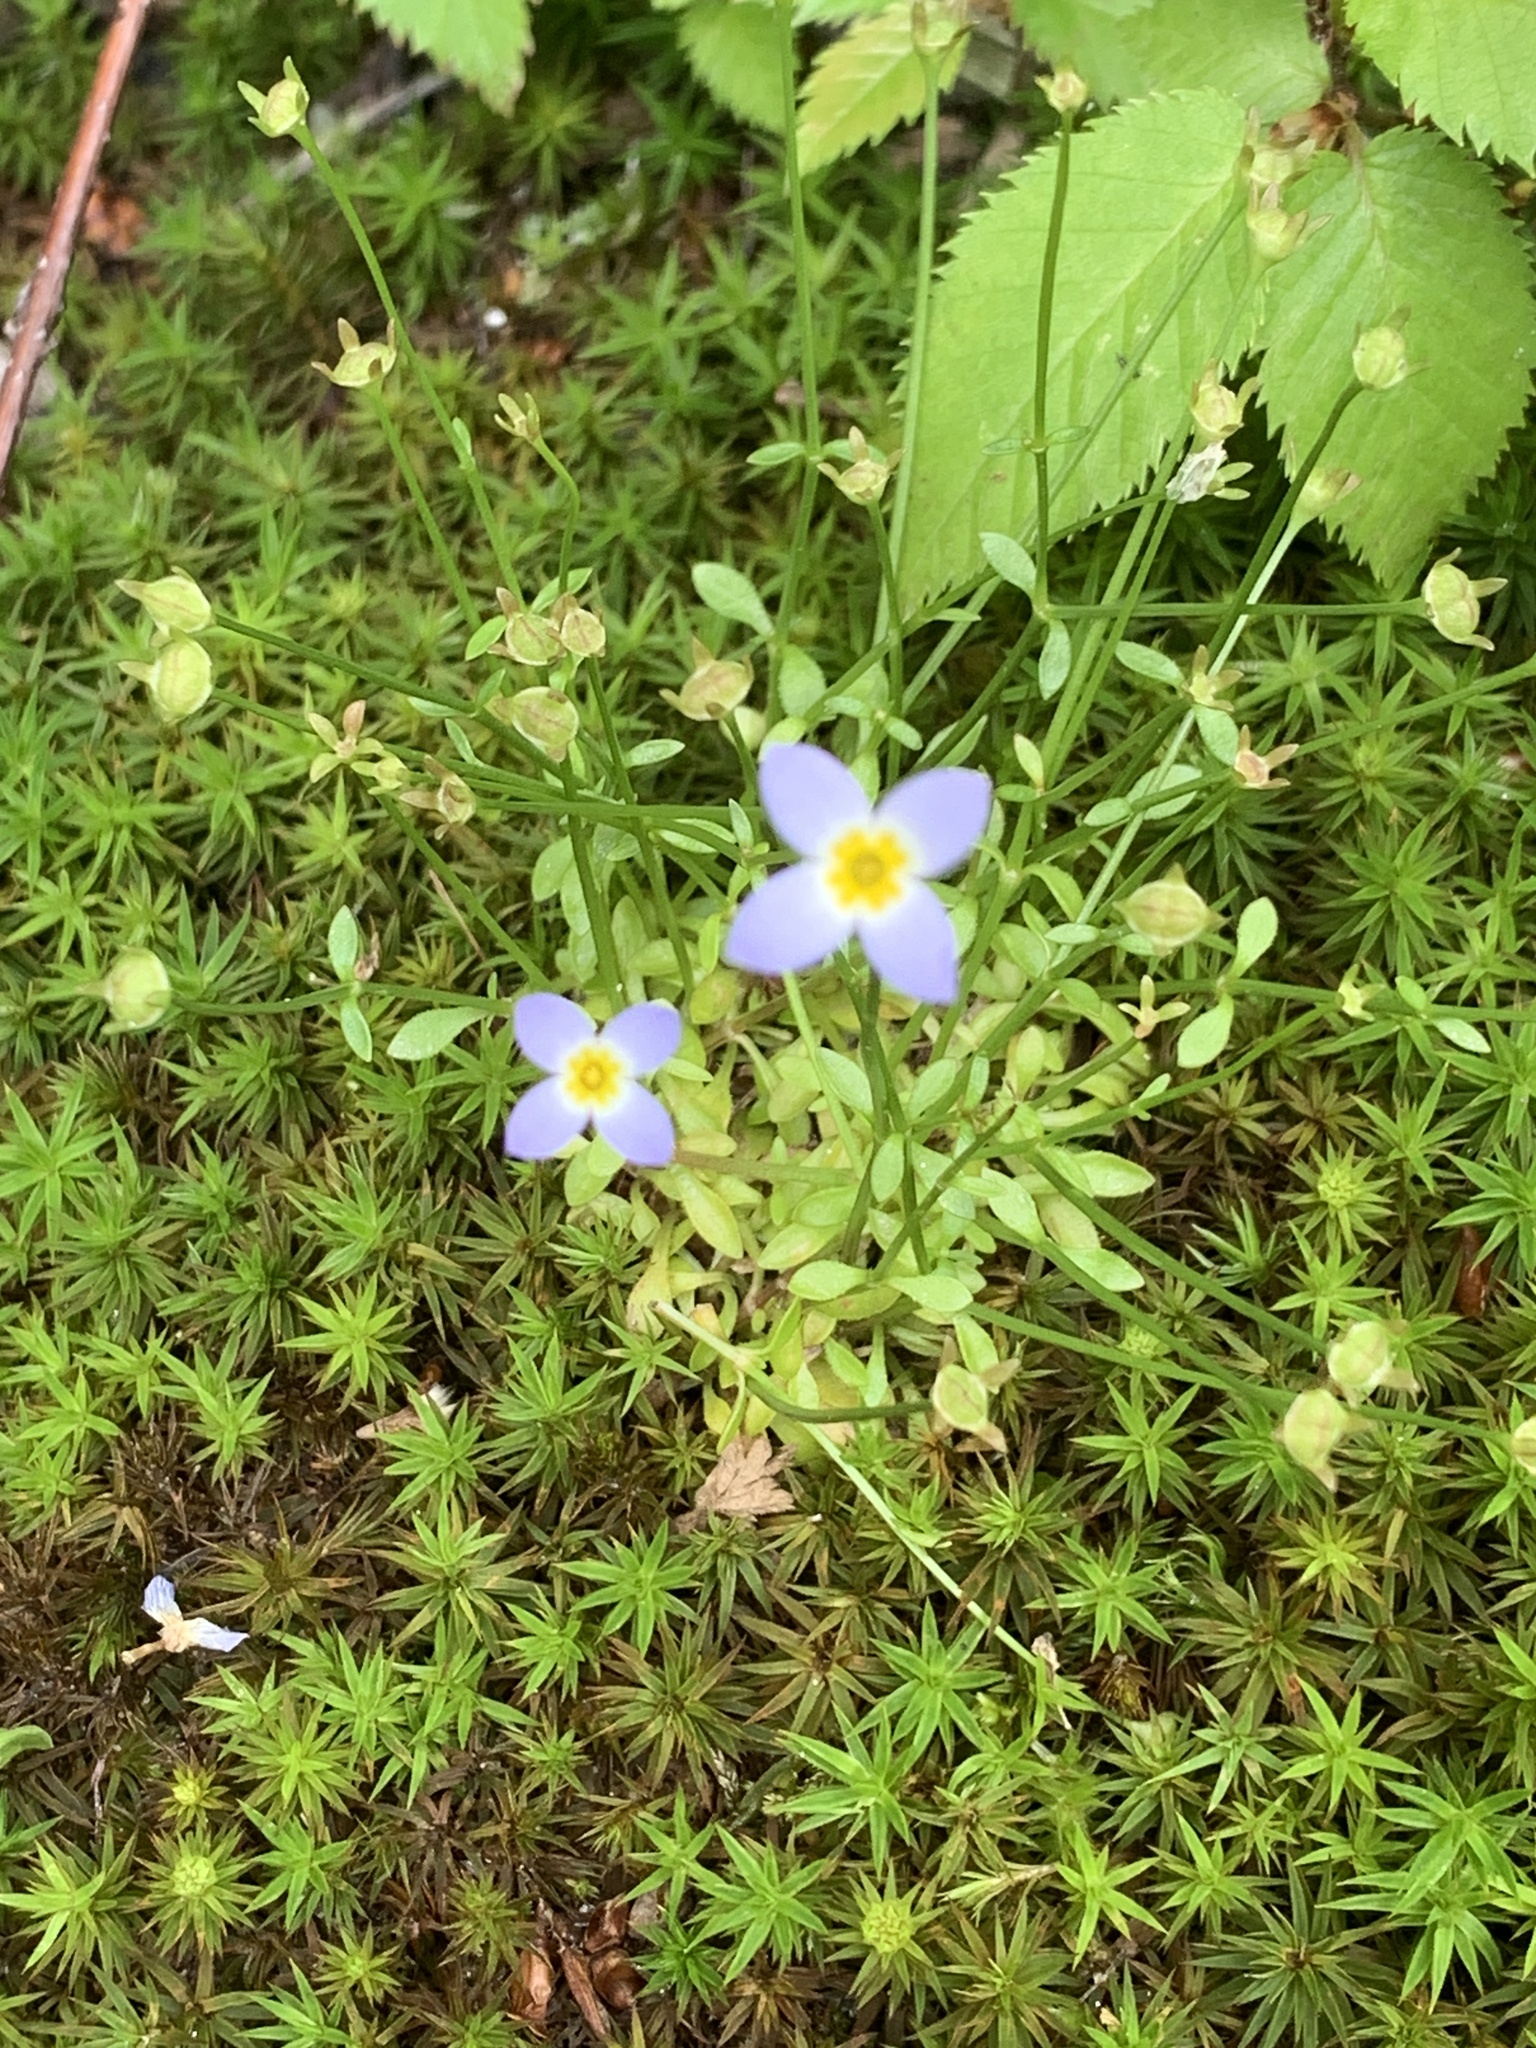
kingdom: Plantae
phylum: Tracheophyta
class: Magnoliopsida
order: Gentianales
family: Rubiaceae
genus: Houstonia
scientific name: Houstonia caerulea
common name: Bluets
